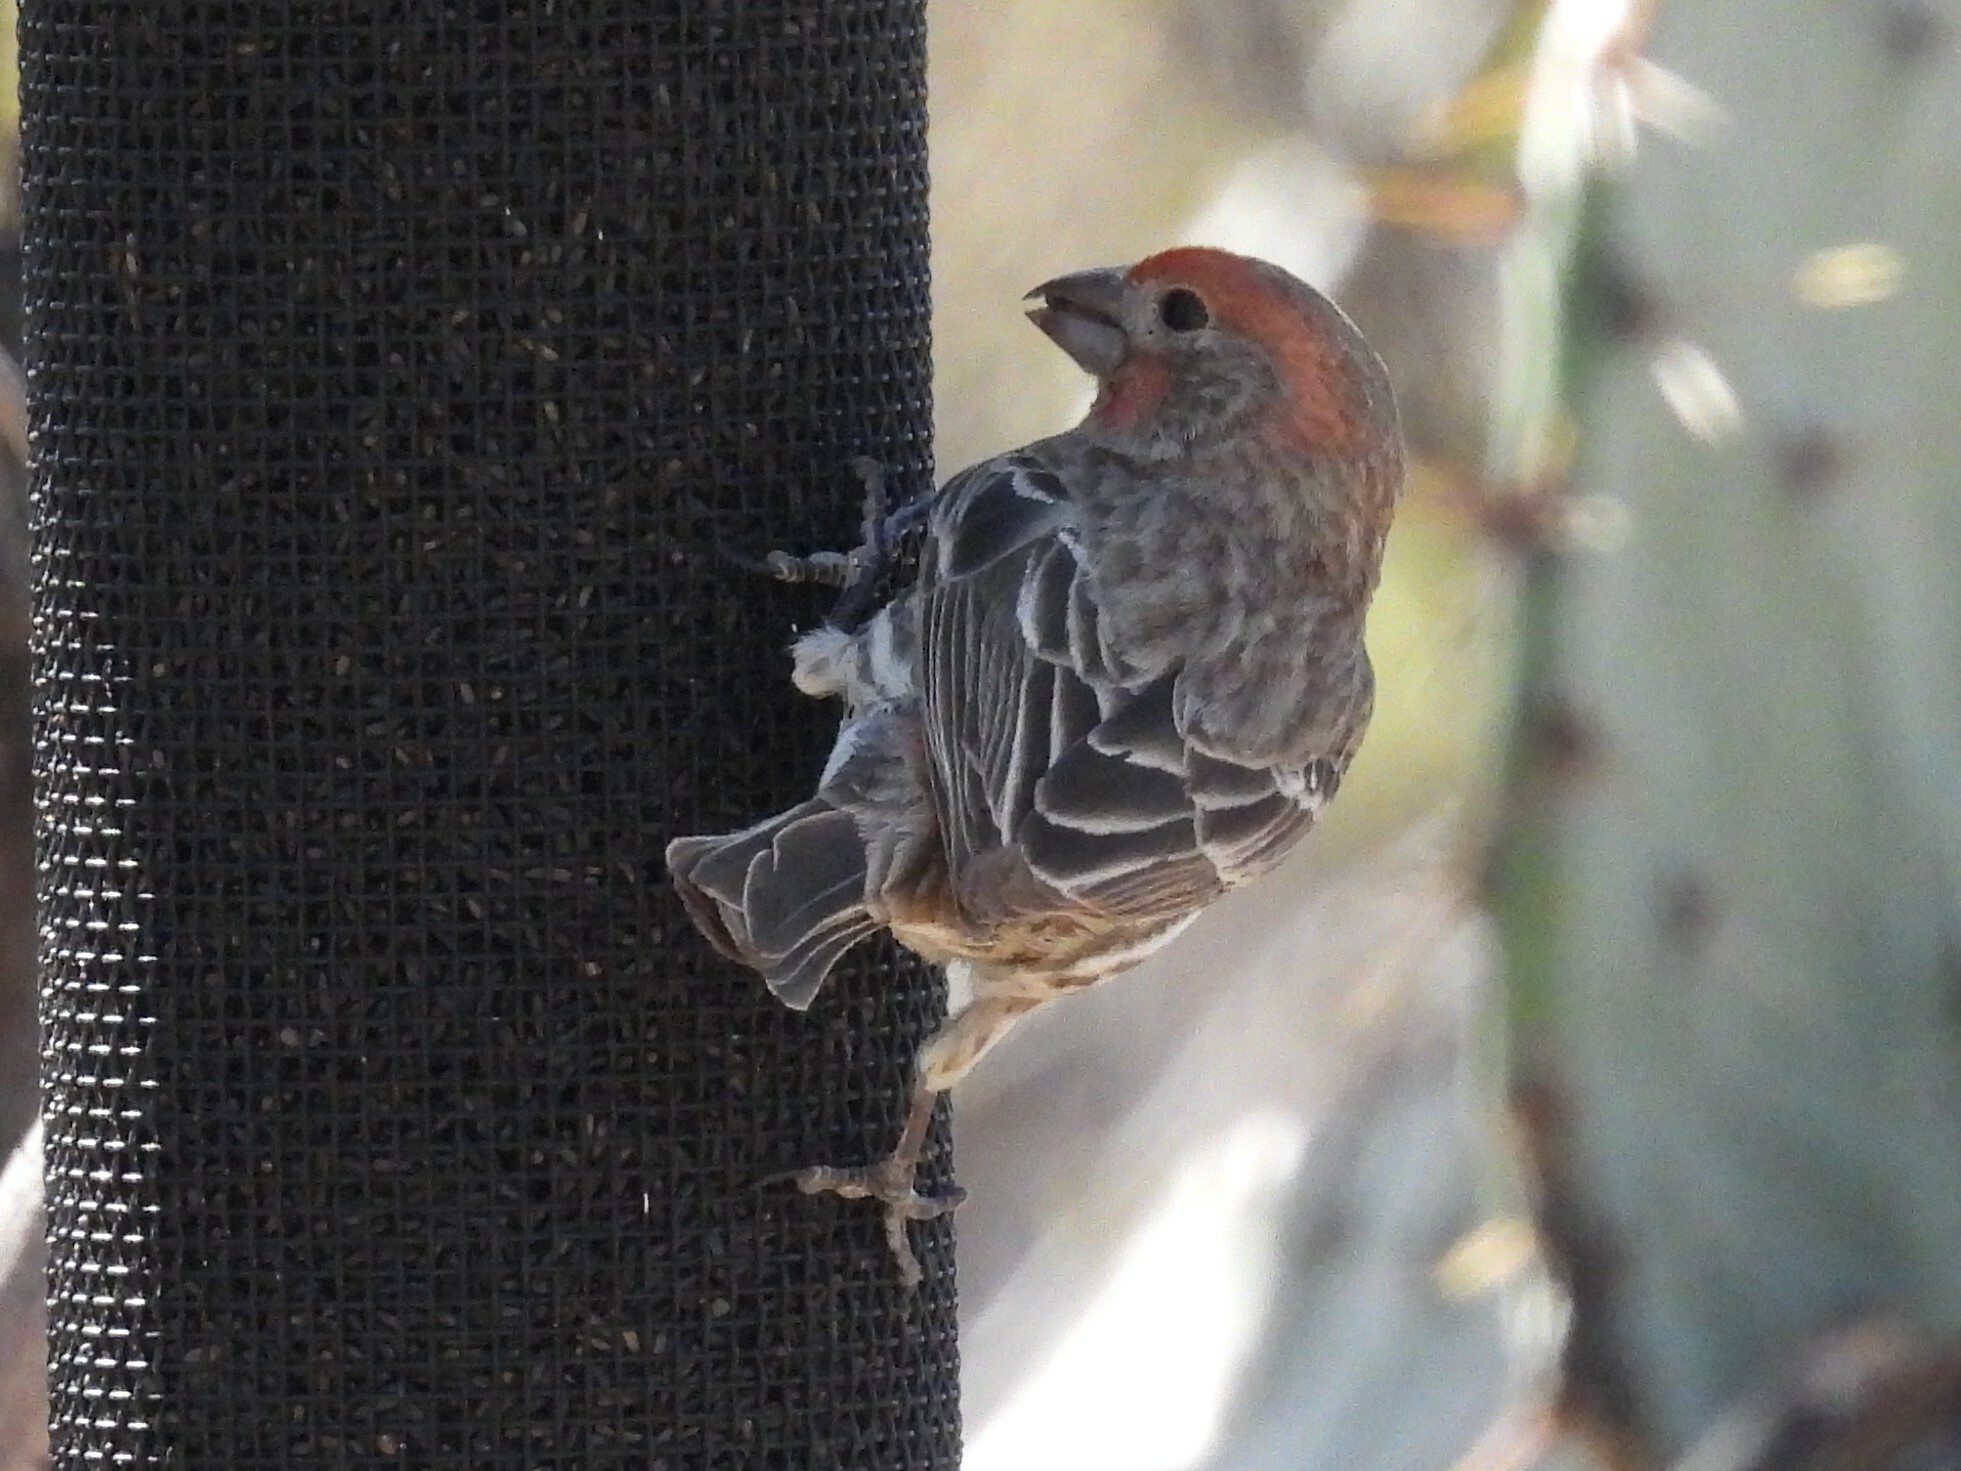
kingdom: Animalia
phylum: Chordata
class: Aves
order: Passeriformes
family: Fringillidae
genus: Haemorhous
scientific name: Haemorhous mexicanus
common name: House finch
